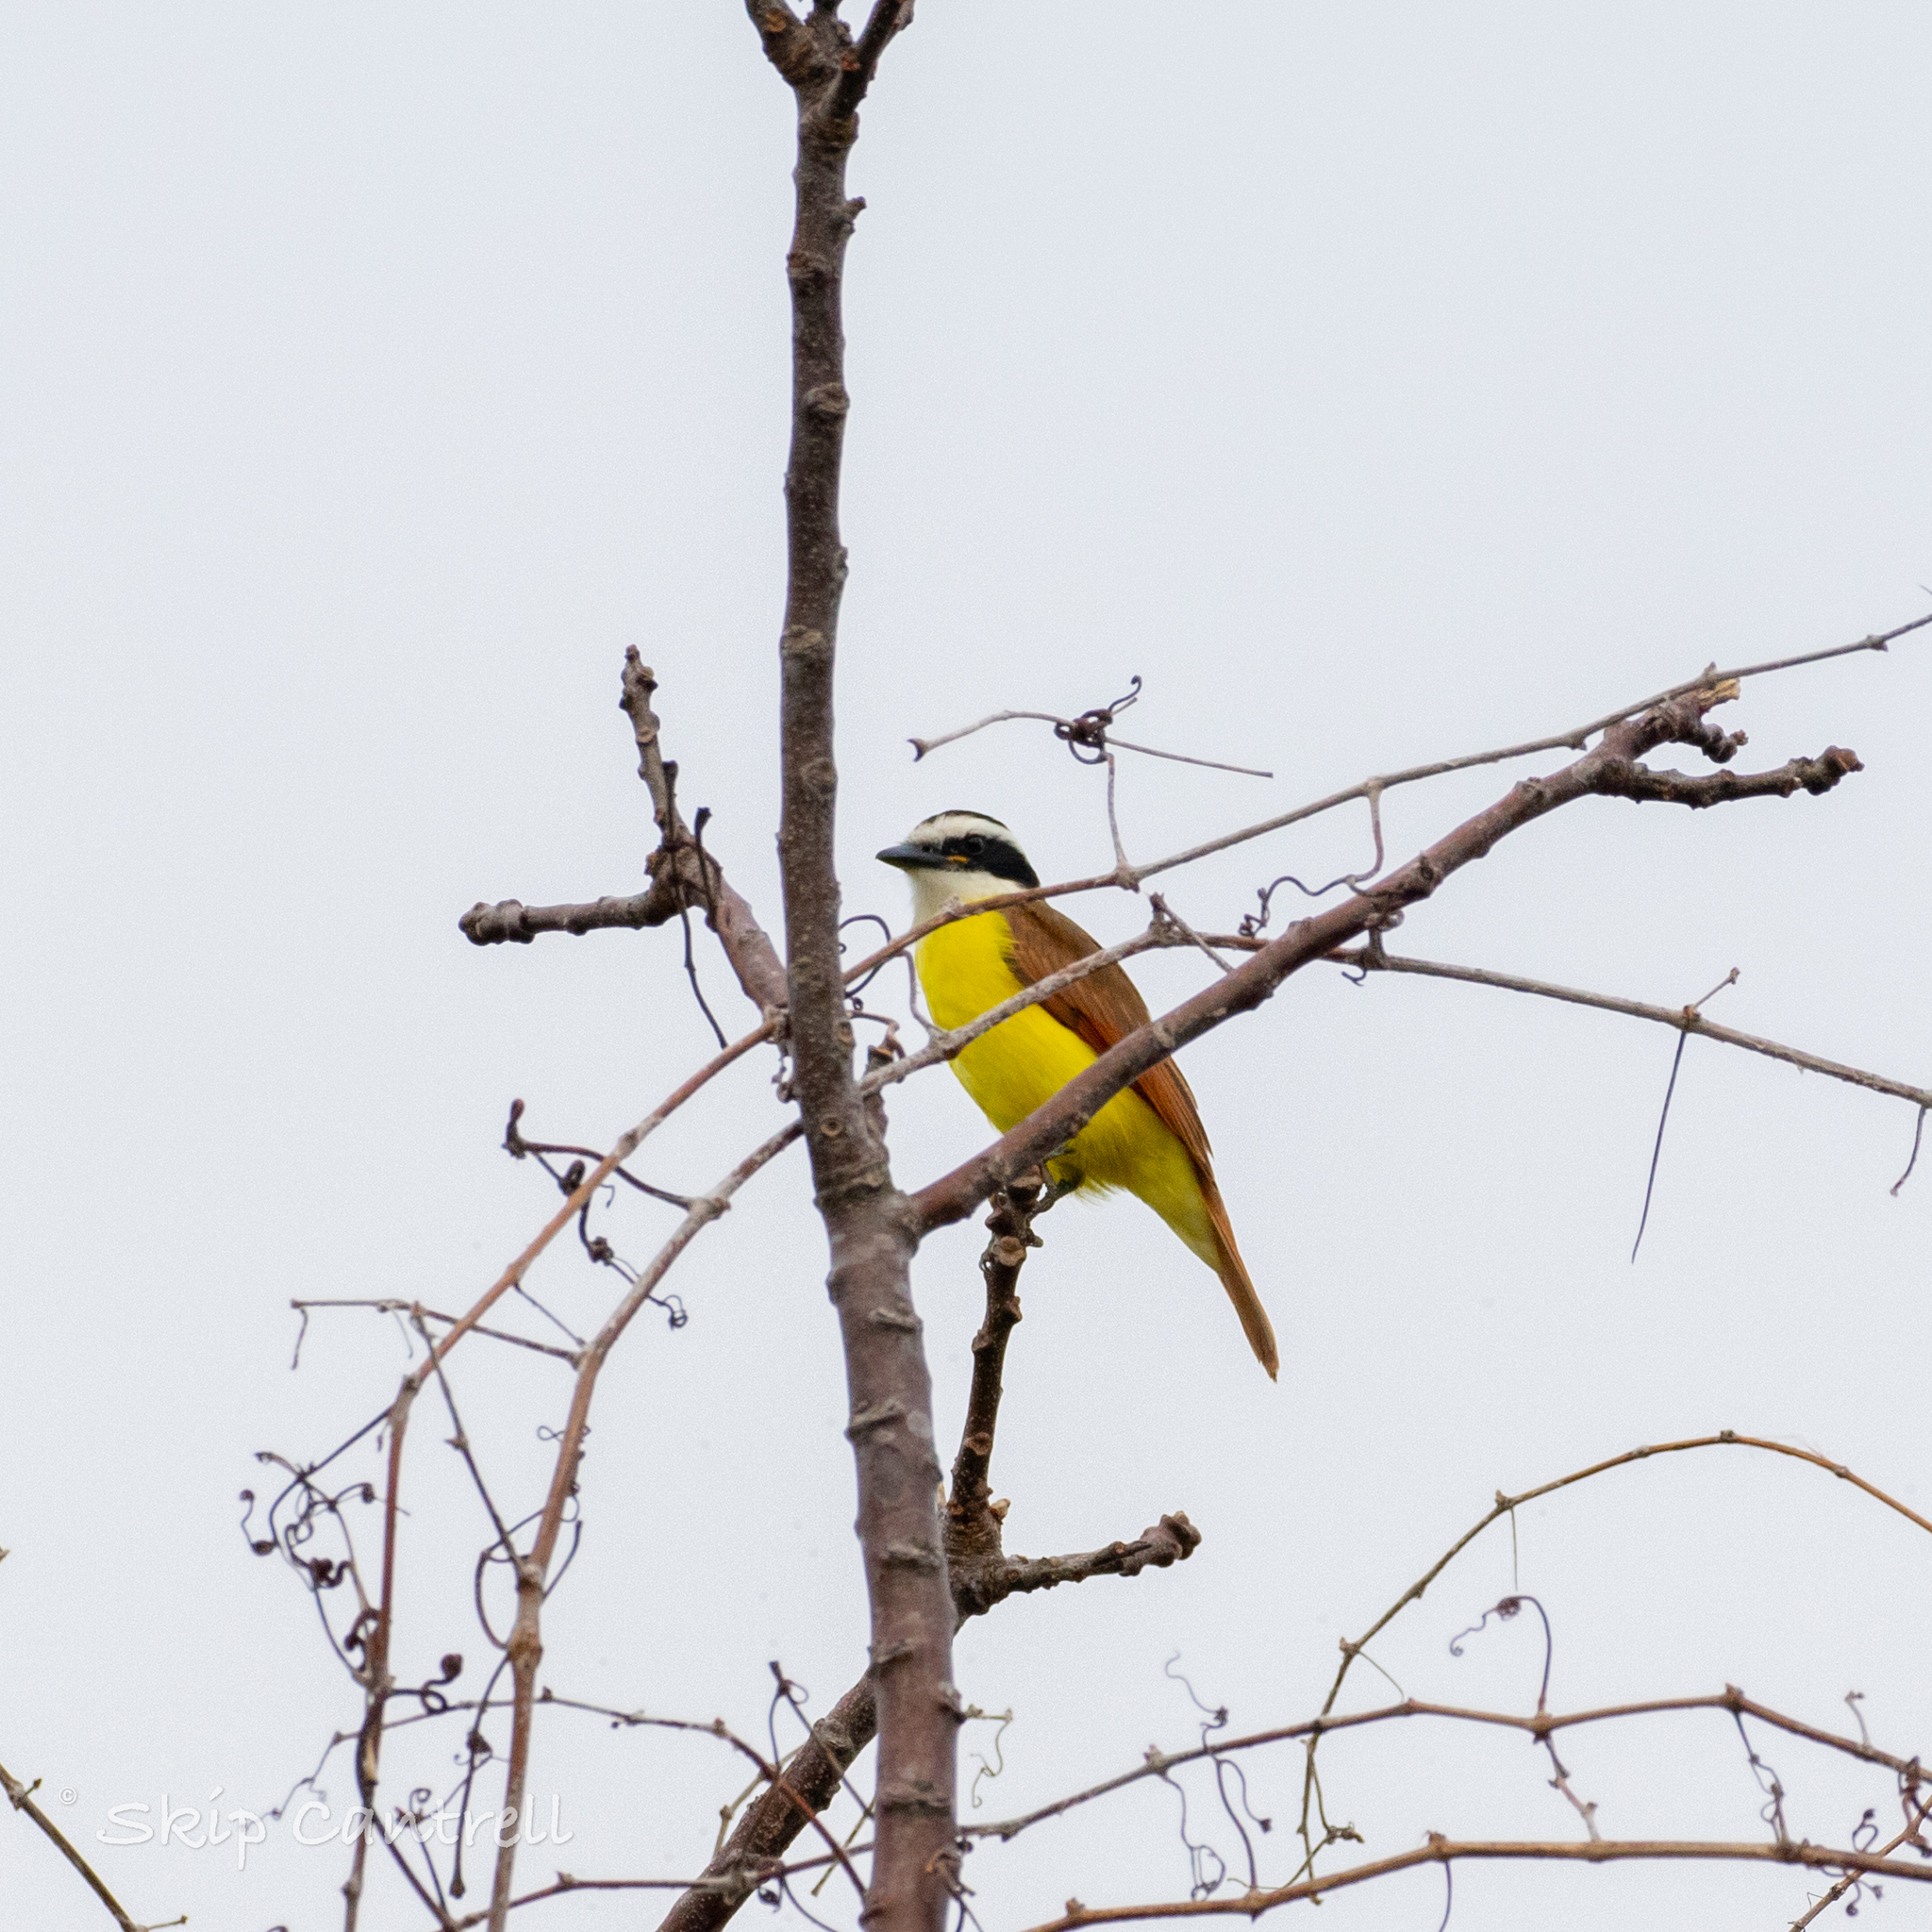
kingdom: Animalia
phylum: Chordata
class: Aves
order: Passeriformes
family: Tyrannidae
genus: Pitangus
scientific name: Pitangus sulphuratus
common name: Great kiskadee
